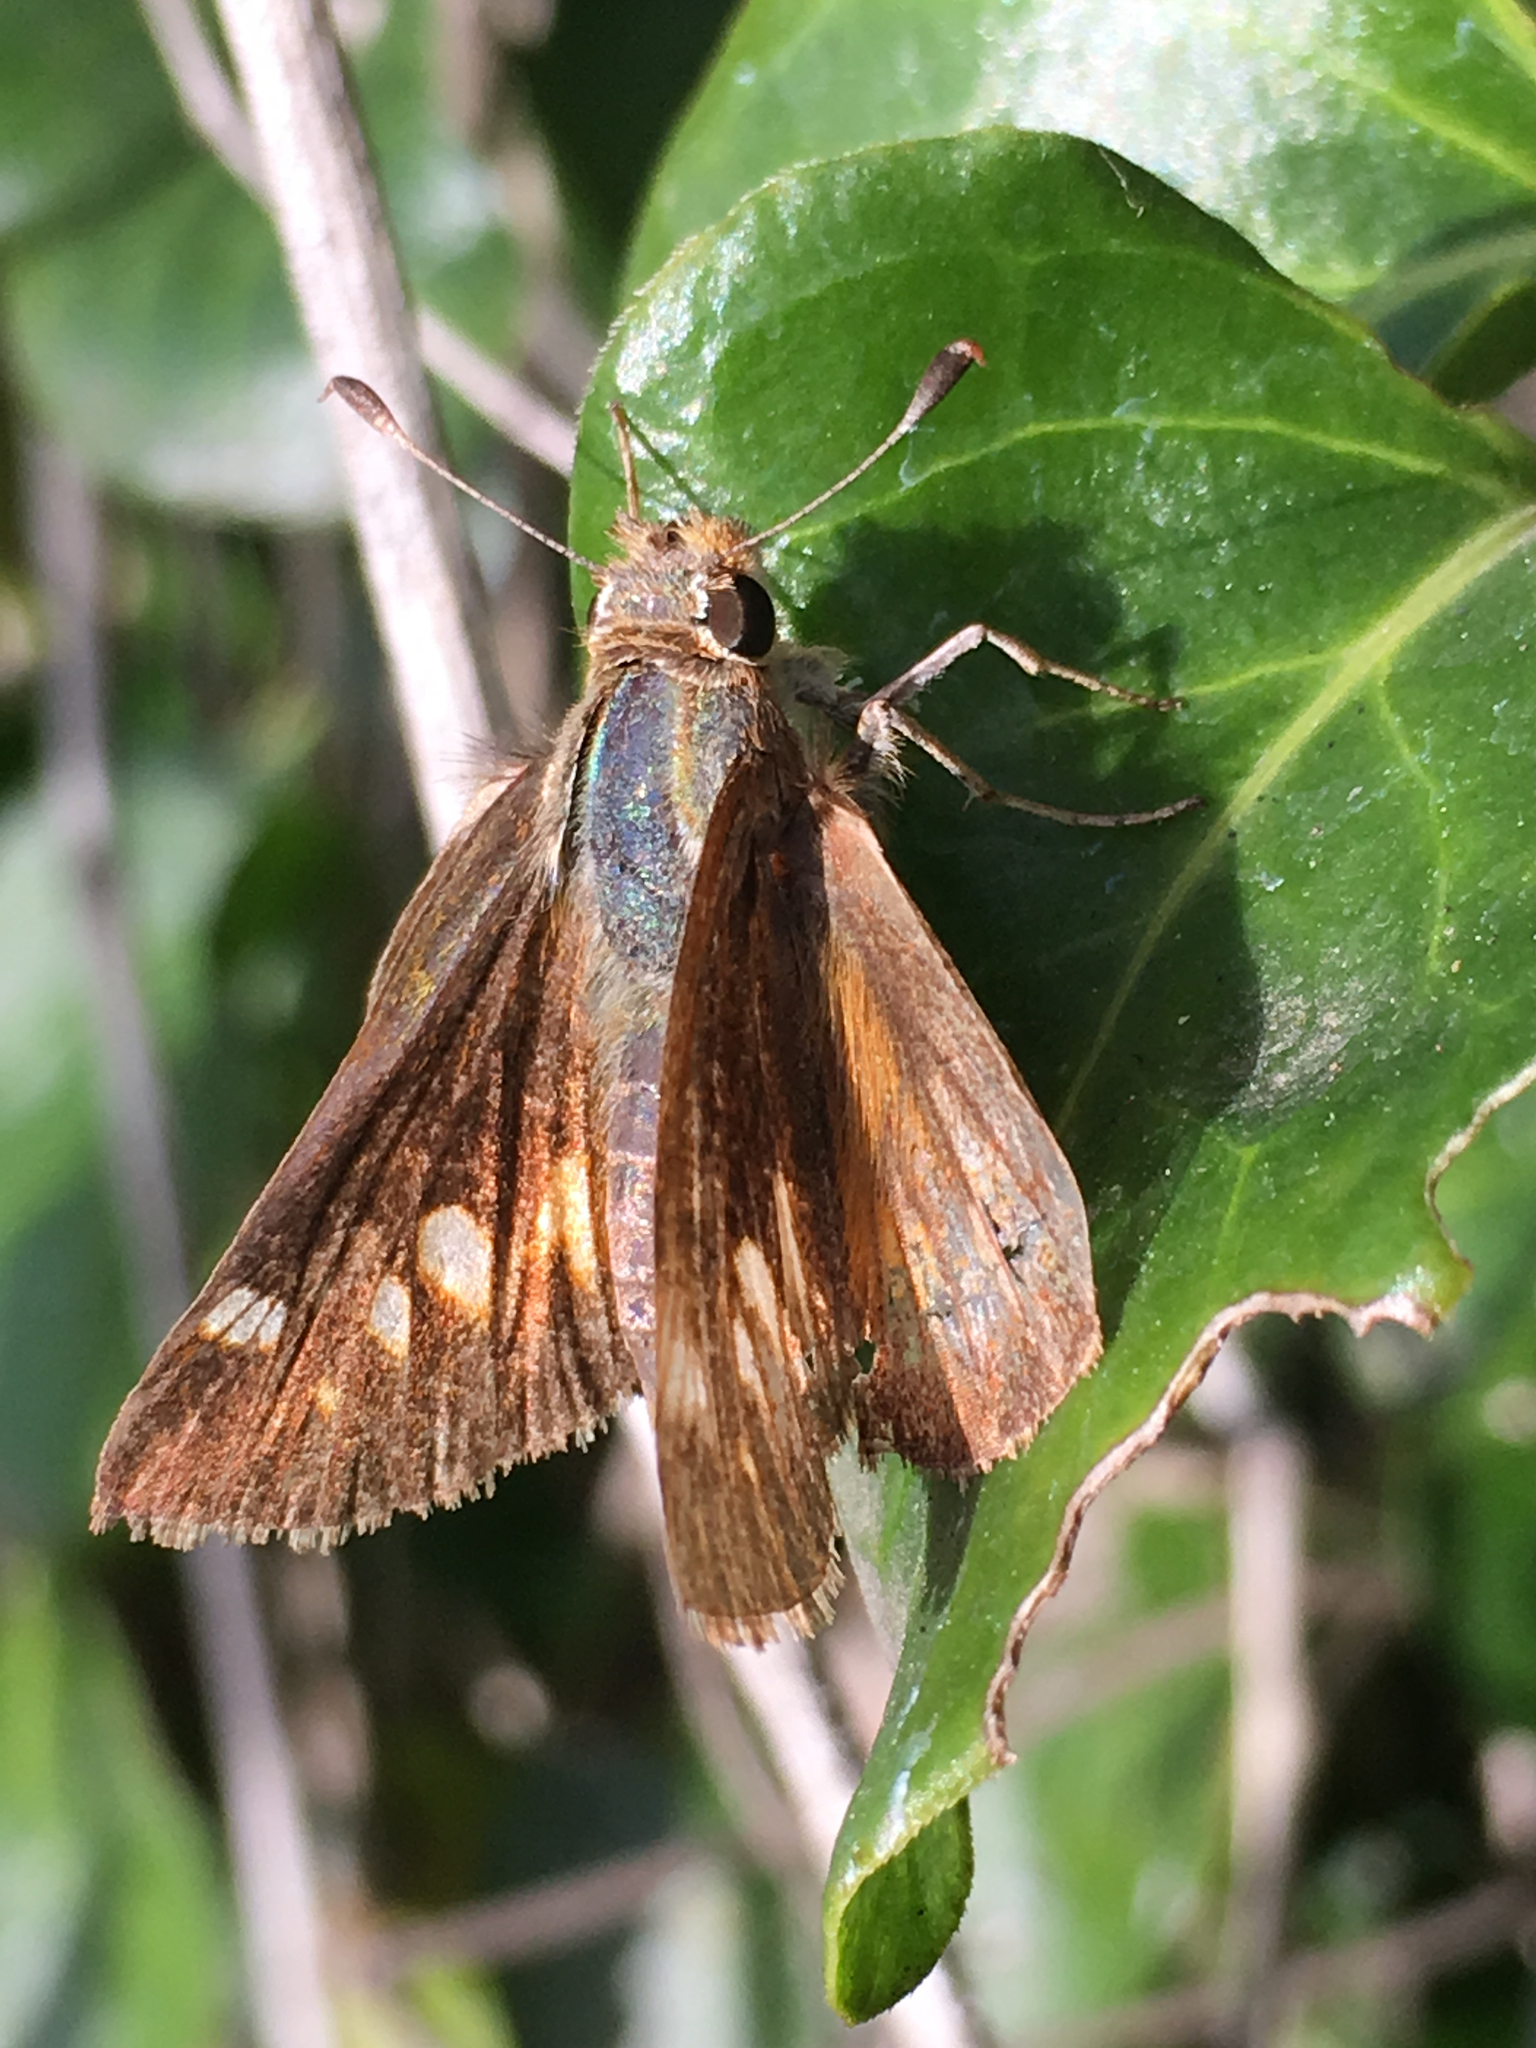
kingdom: Animalia
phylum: Arthropoda
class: Insecta
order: Lepidoptera
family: Hesperiidae
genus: Lon
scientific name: Lon melane
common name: Umber skipper
